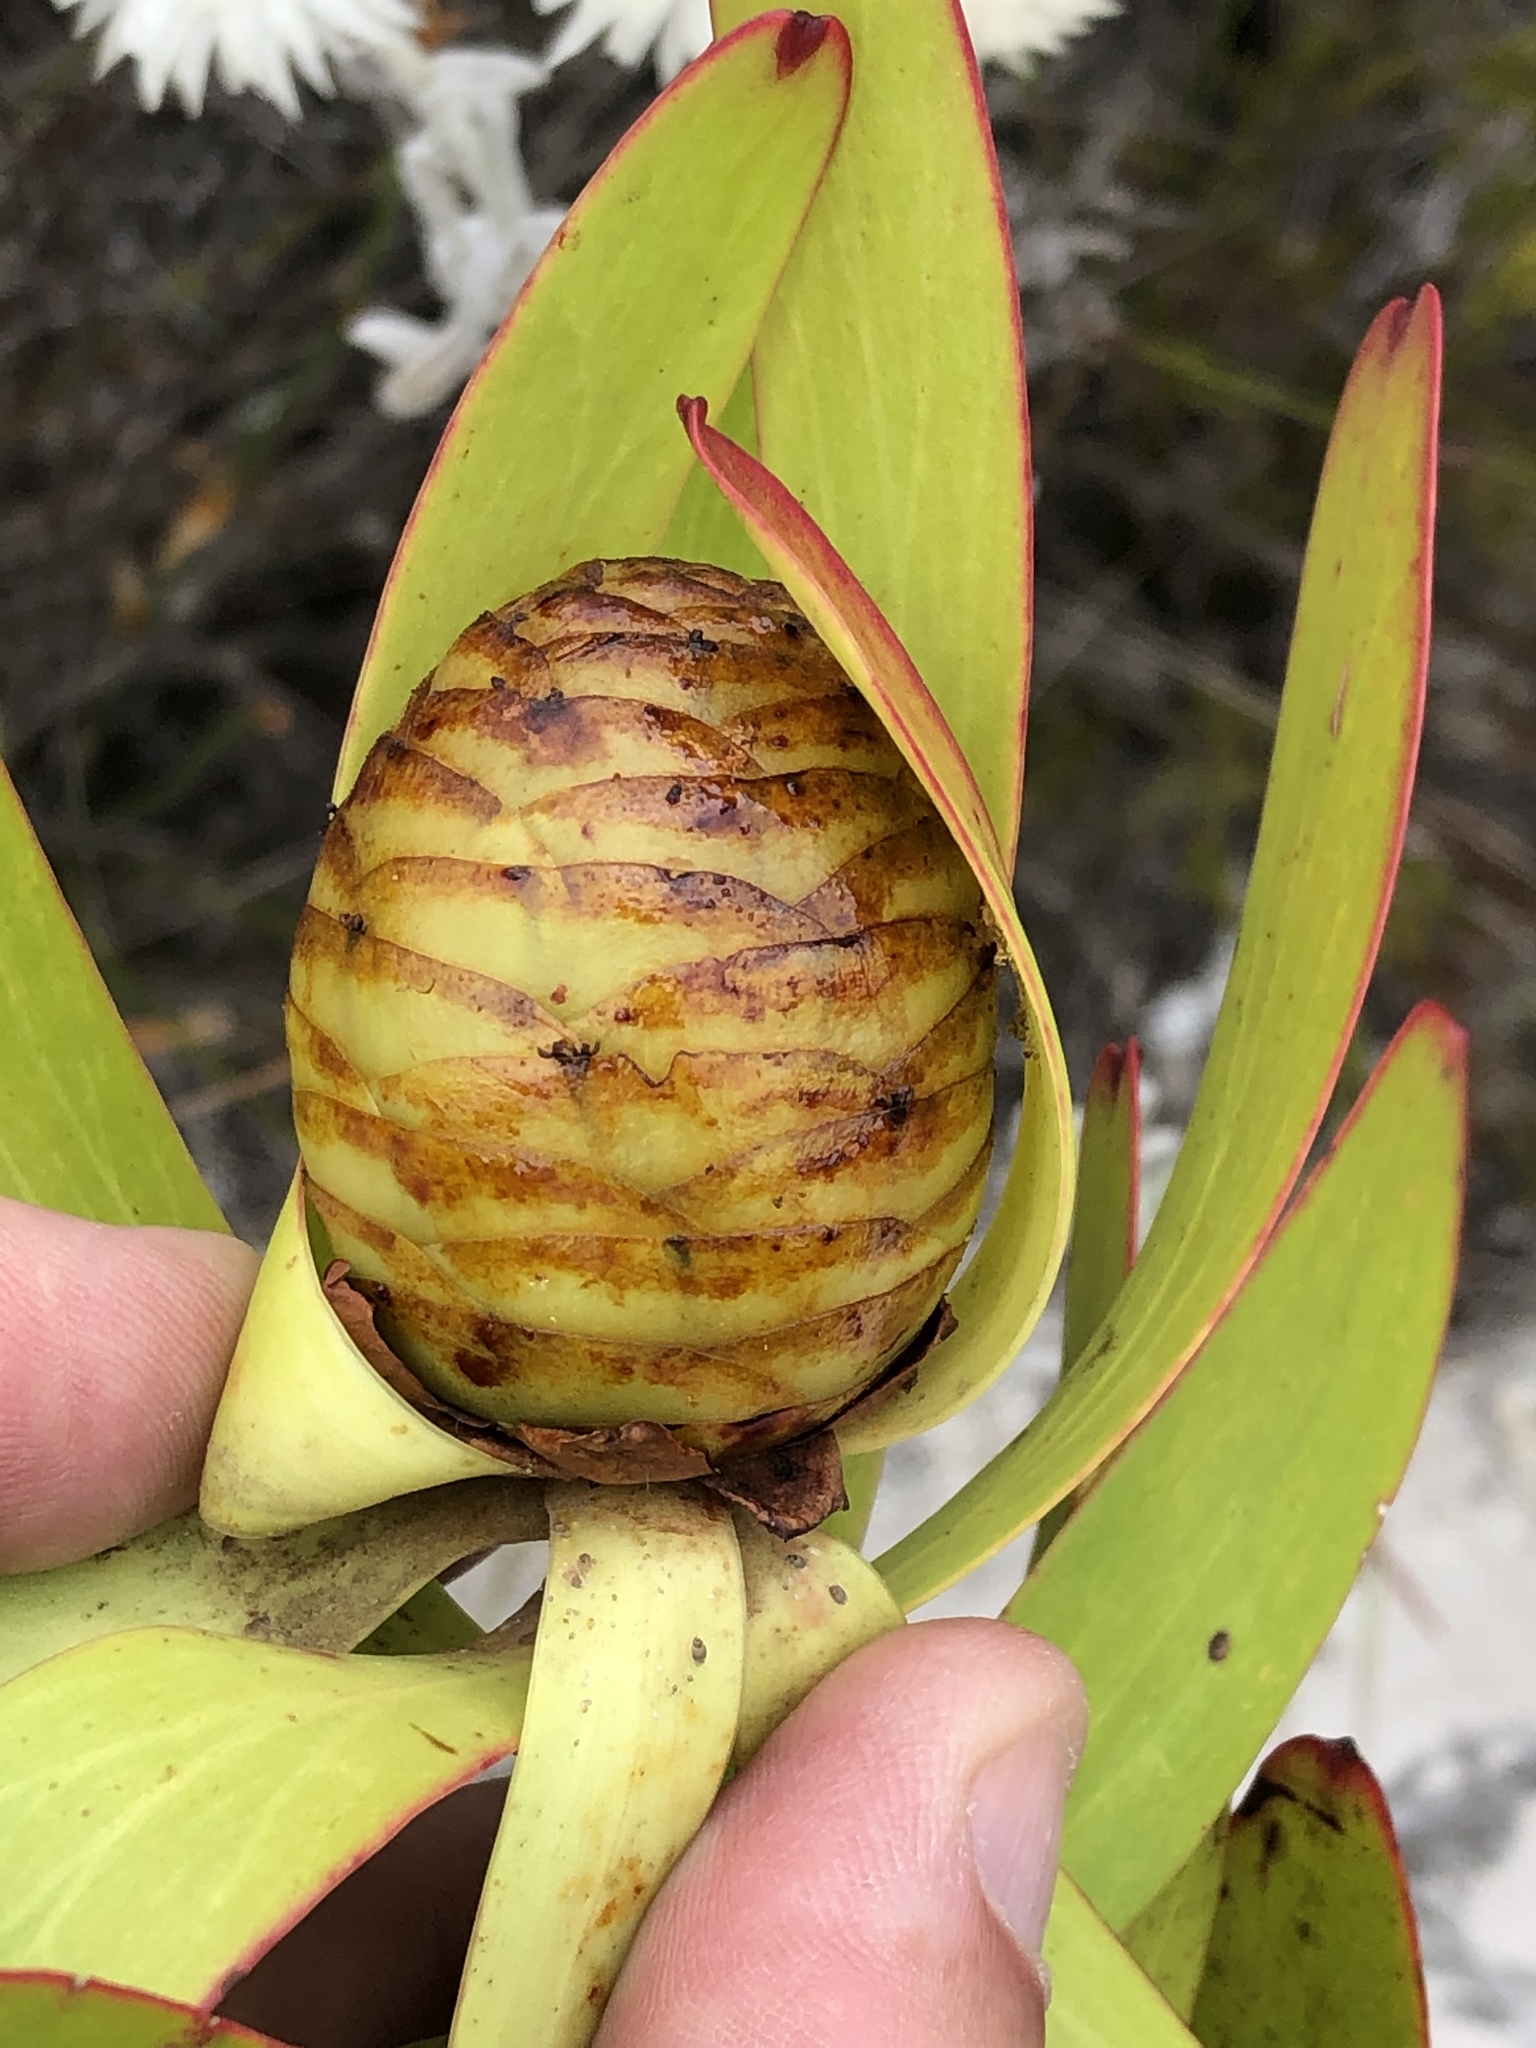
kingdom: Plantae
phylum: Tracheophyta
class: Magnoliopsida
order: Proteales
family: Proteaceae
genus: Leucadendron
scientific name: Leucadendron microcephalum
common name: Oilbract conebush
